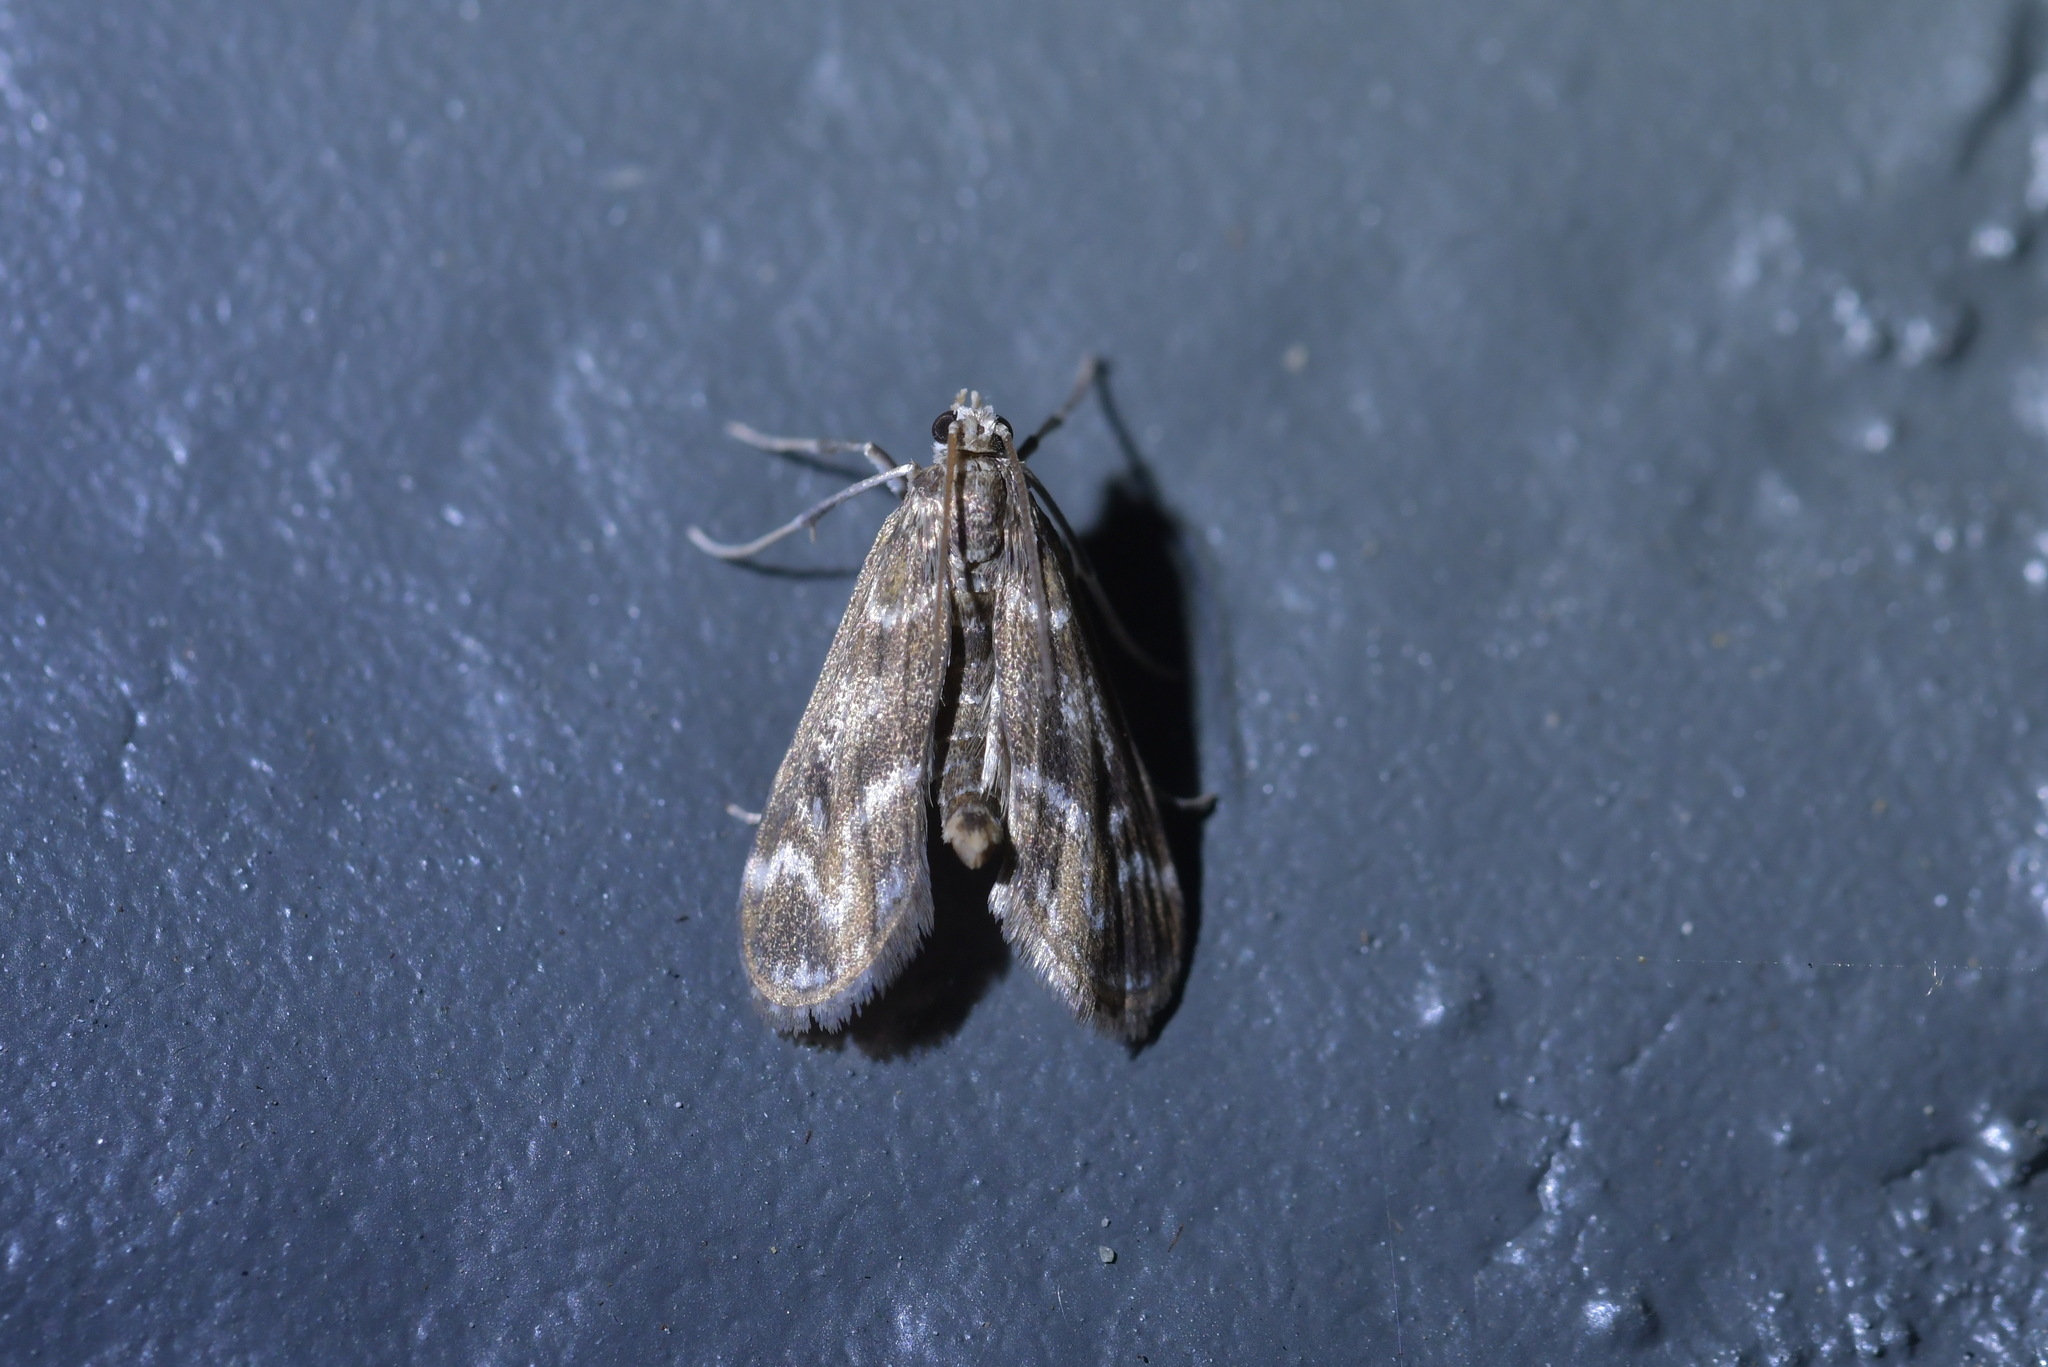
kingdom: Animalia
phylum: Arthropoda
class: Insecta
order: Lepidoptera
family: Crambidae
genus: Hygraula
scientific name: Hygraula nitens
